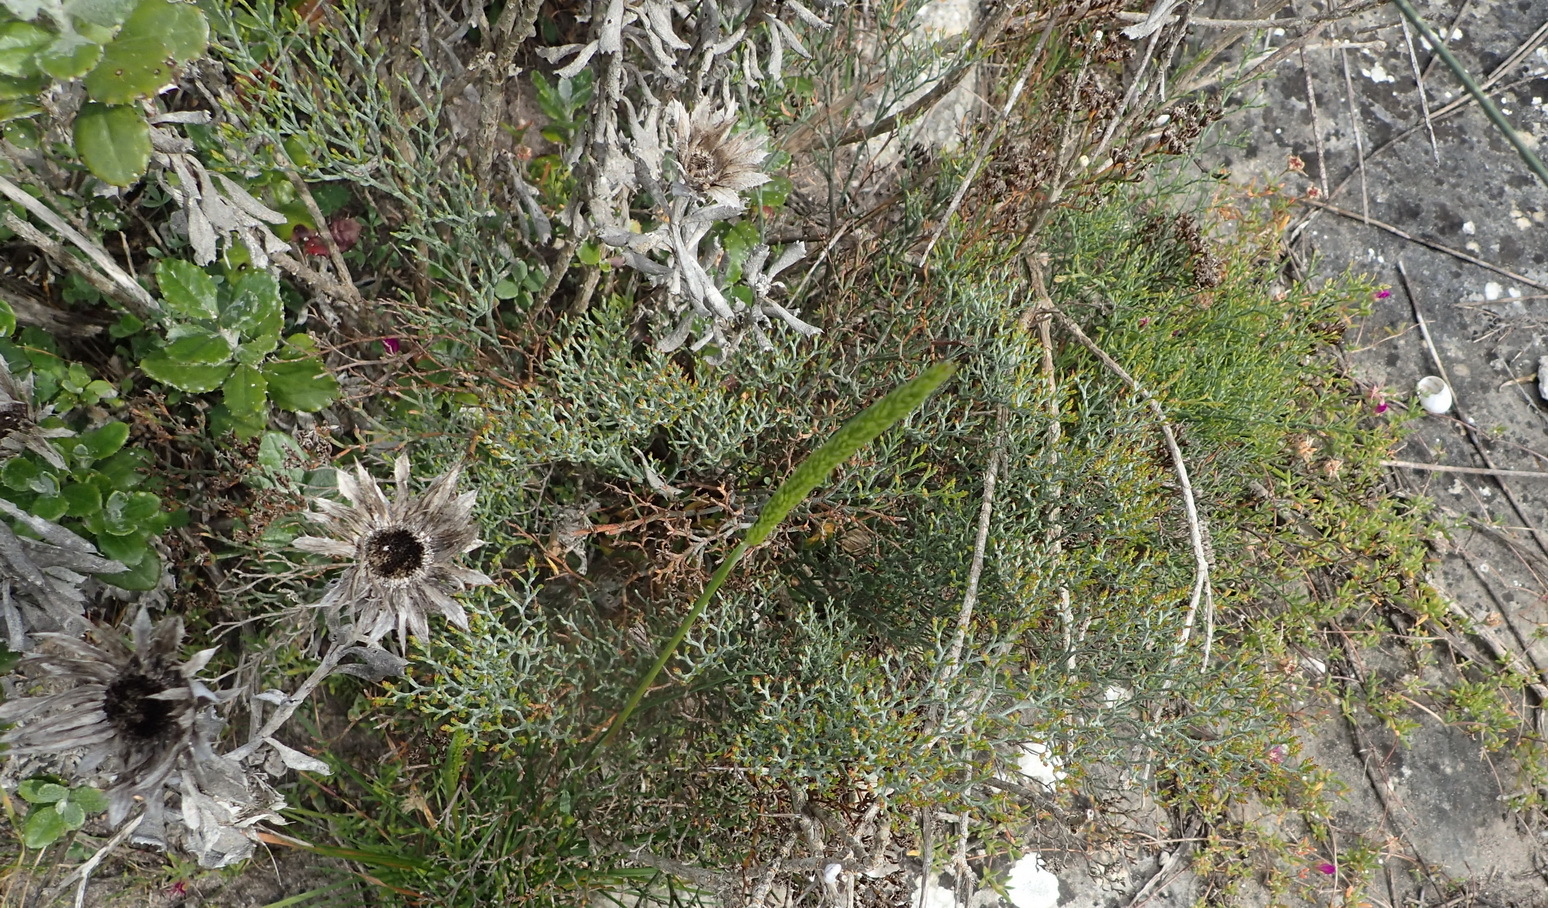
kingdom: Plantae
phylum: Tracheophyta
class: Magnoliopsida
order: Caryophyllales
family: Plumbaginaceae
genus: Limonium
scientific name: Limonium scabrum
